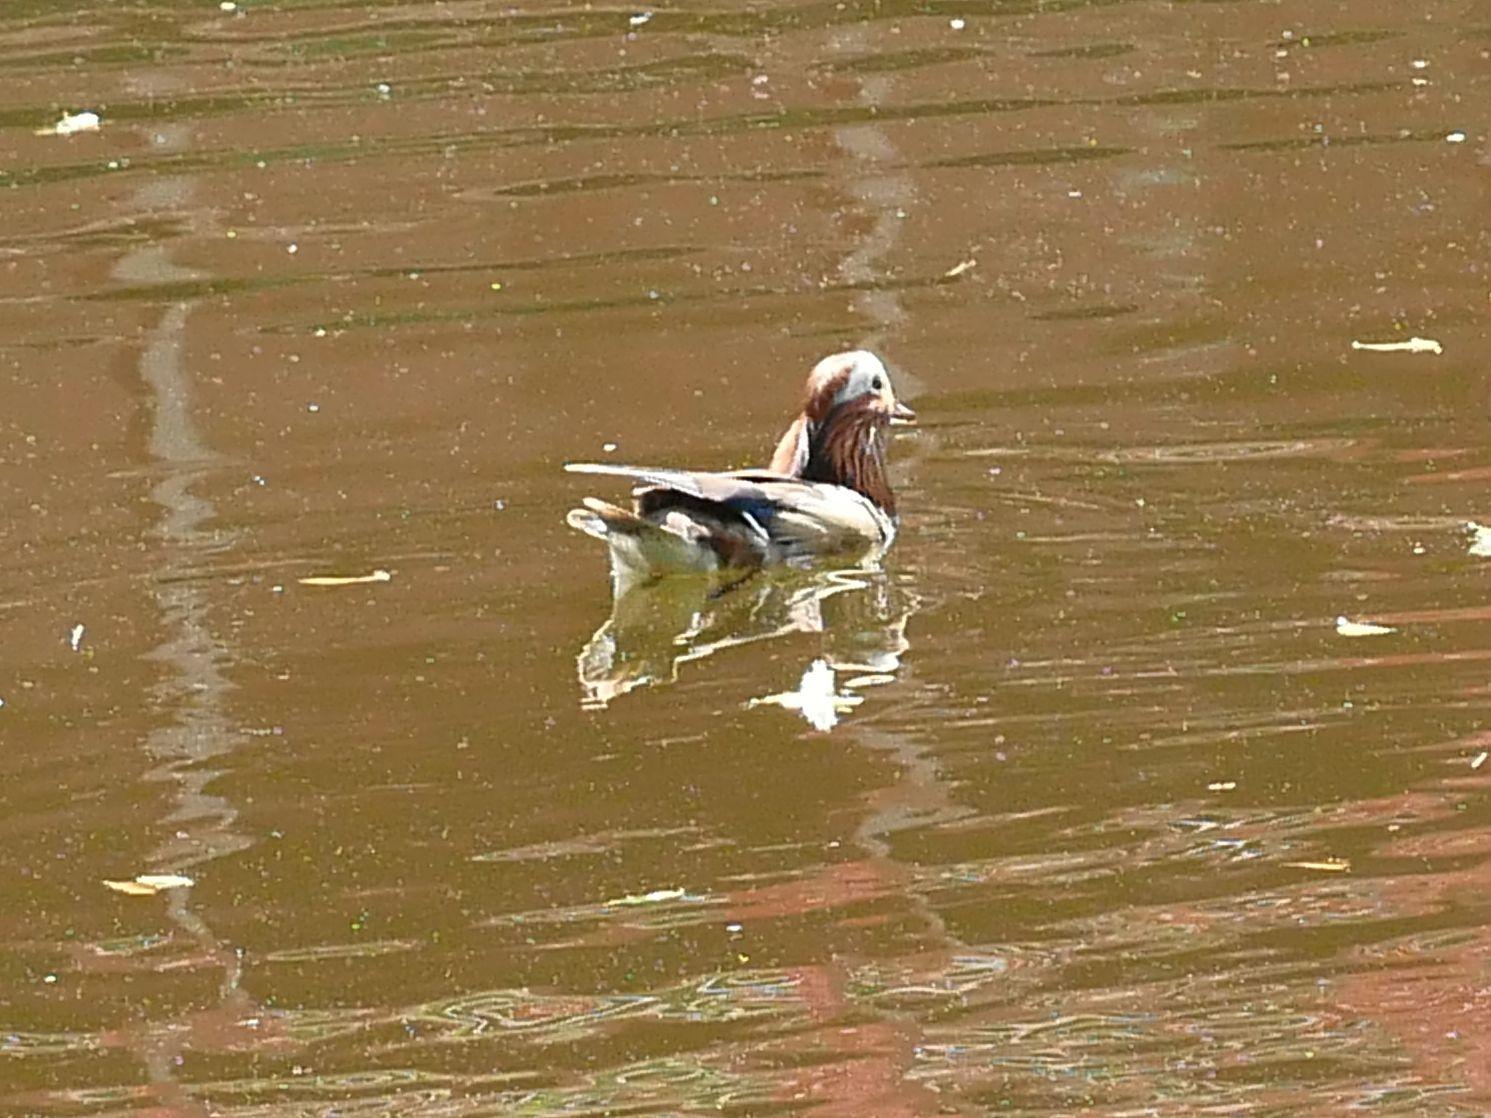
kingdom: Animalia
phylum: Chordata
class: Aves
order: Anseriformes
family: Anatidae
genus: Aix
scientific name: Aix galericulata
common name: Mandarin duck
